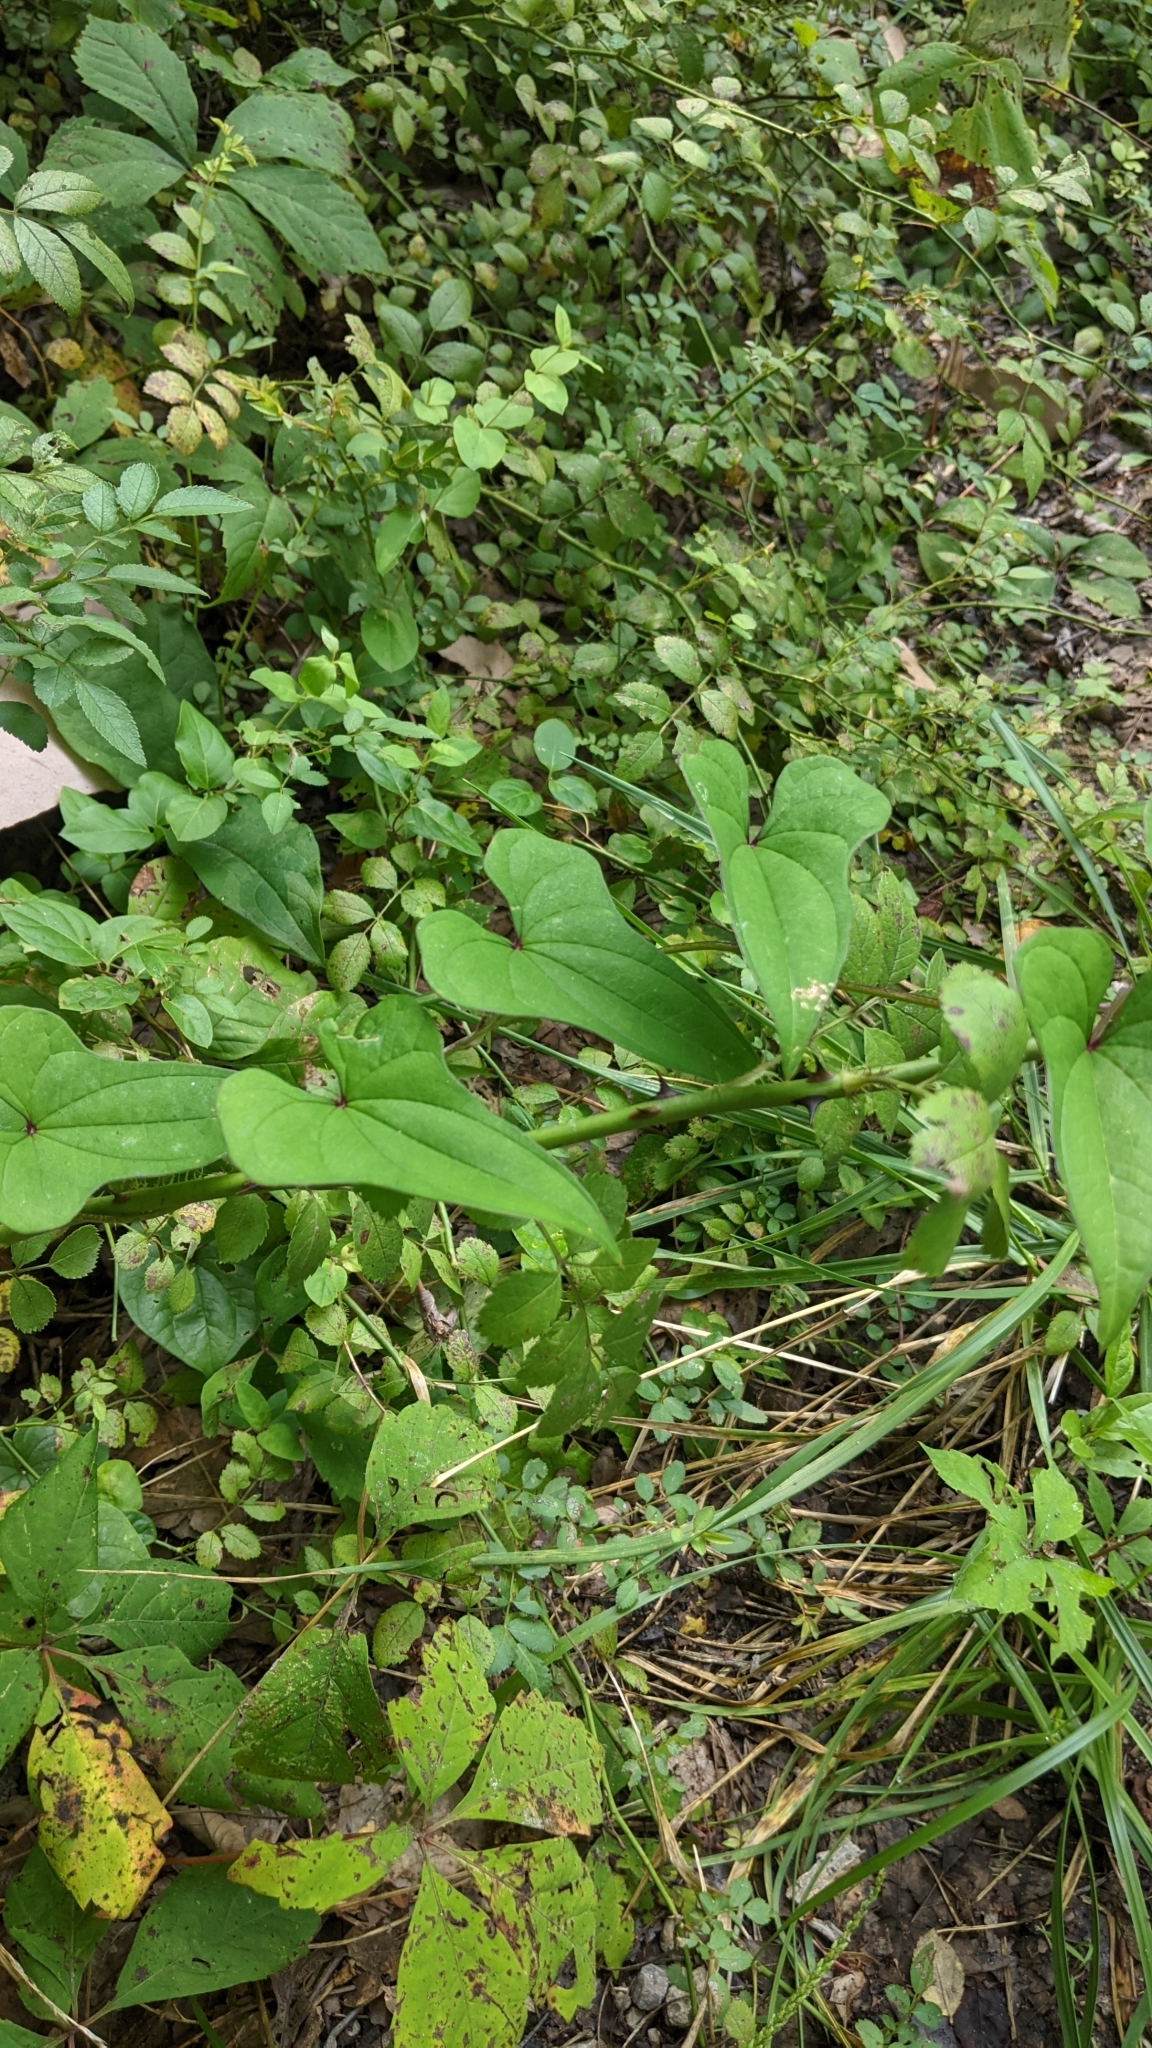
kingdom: Plantae
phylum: Tracheophyta
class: Liliopsida
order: Dioscoreales
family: Dioscoreaceae
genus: Dioscorea
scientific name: Dioscorea polystachya
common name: Chinese yam
